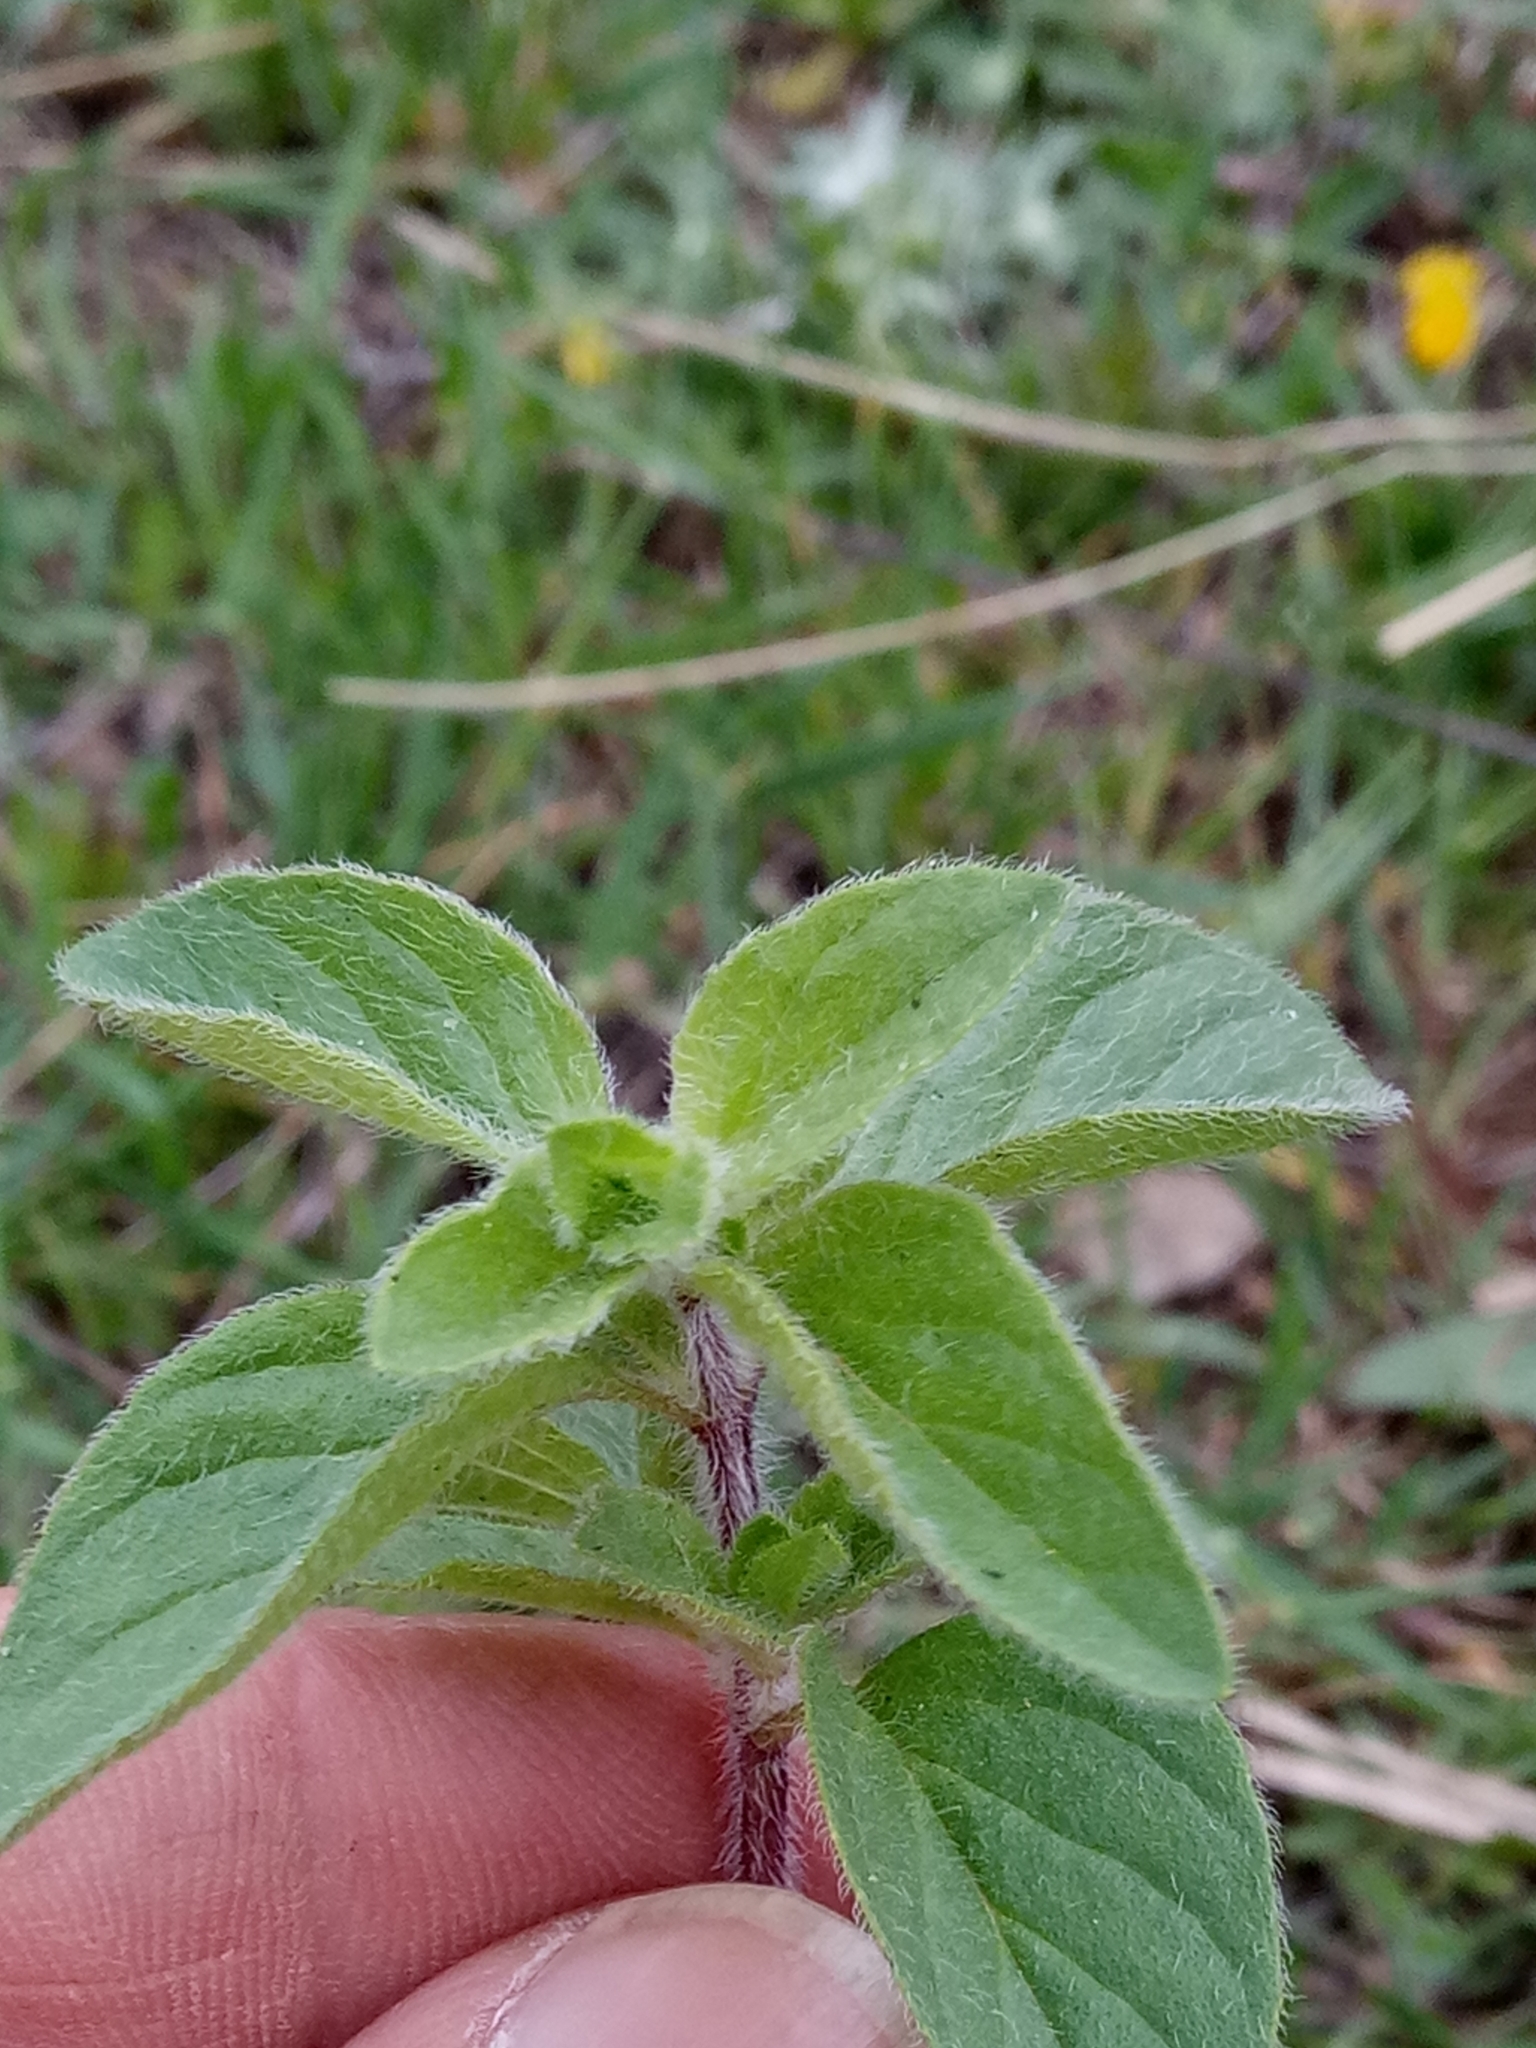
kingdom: Plantae
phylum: Tracheophyta
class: Magnoliopsida
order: Lamiales
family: Lamiaceae
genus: Origanum
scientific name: Origanum vulgare
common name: Wild marjoram
